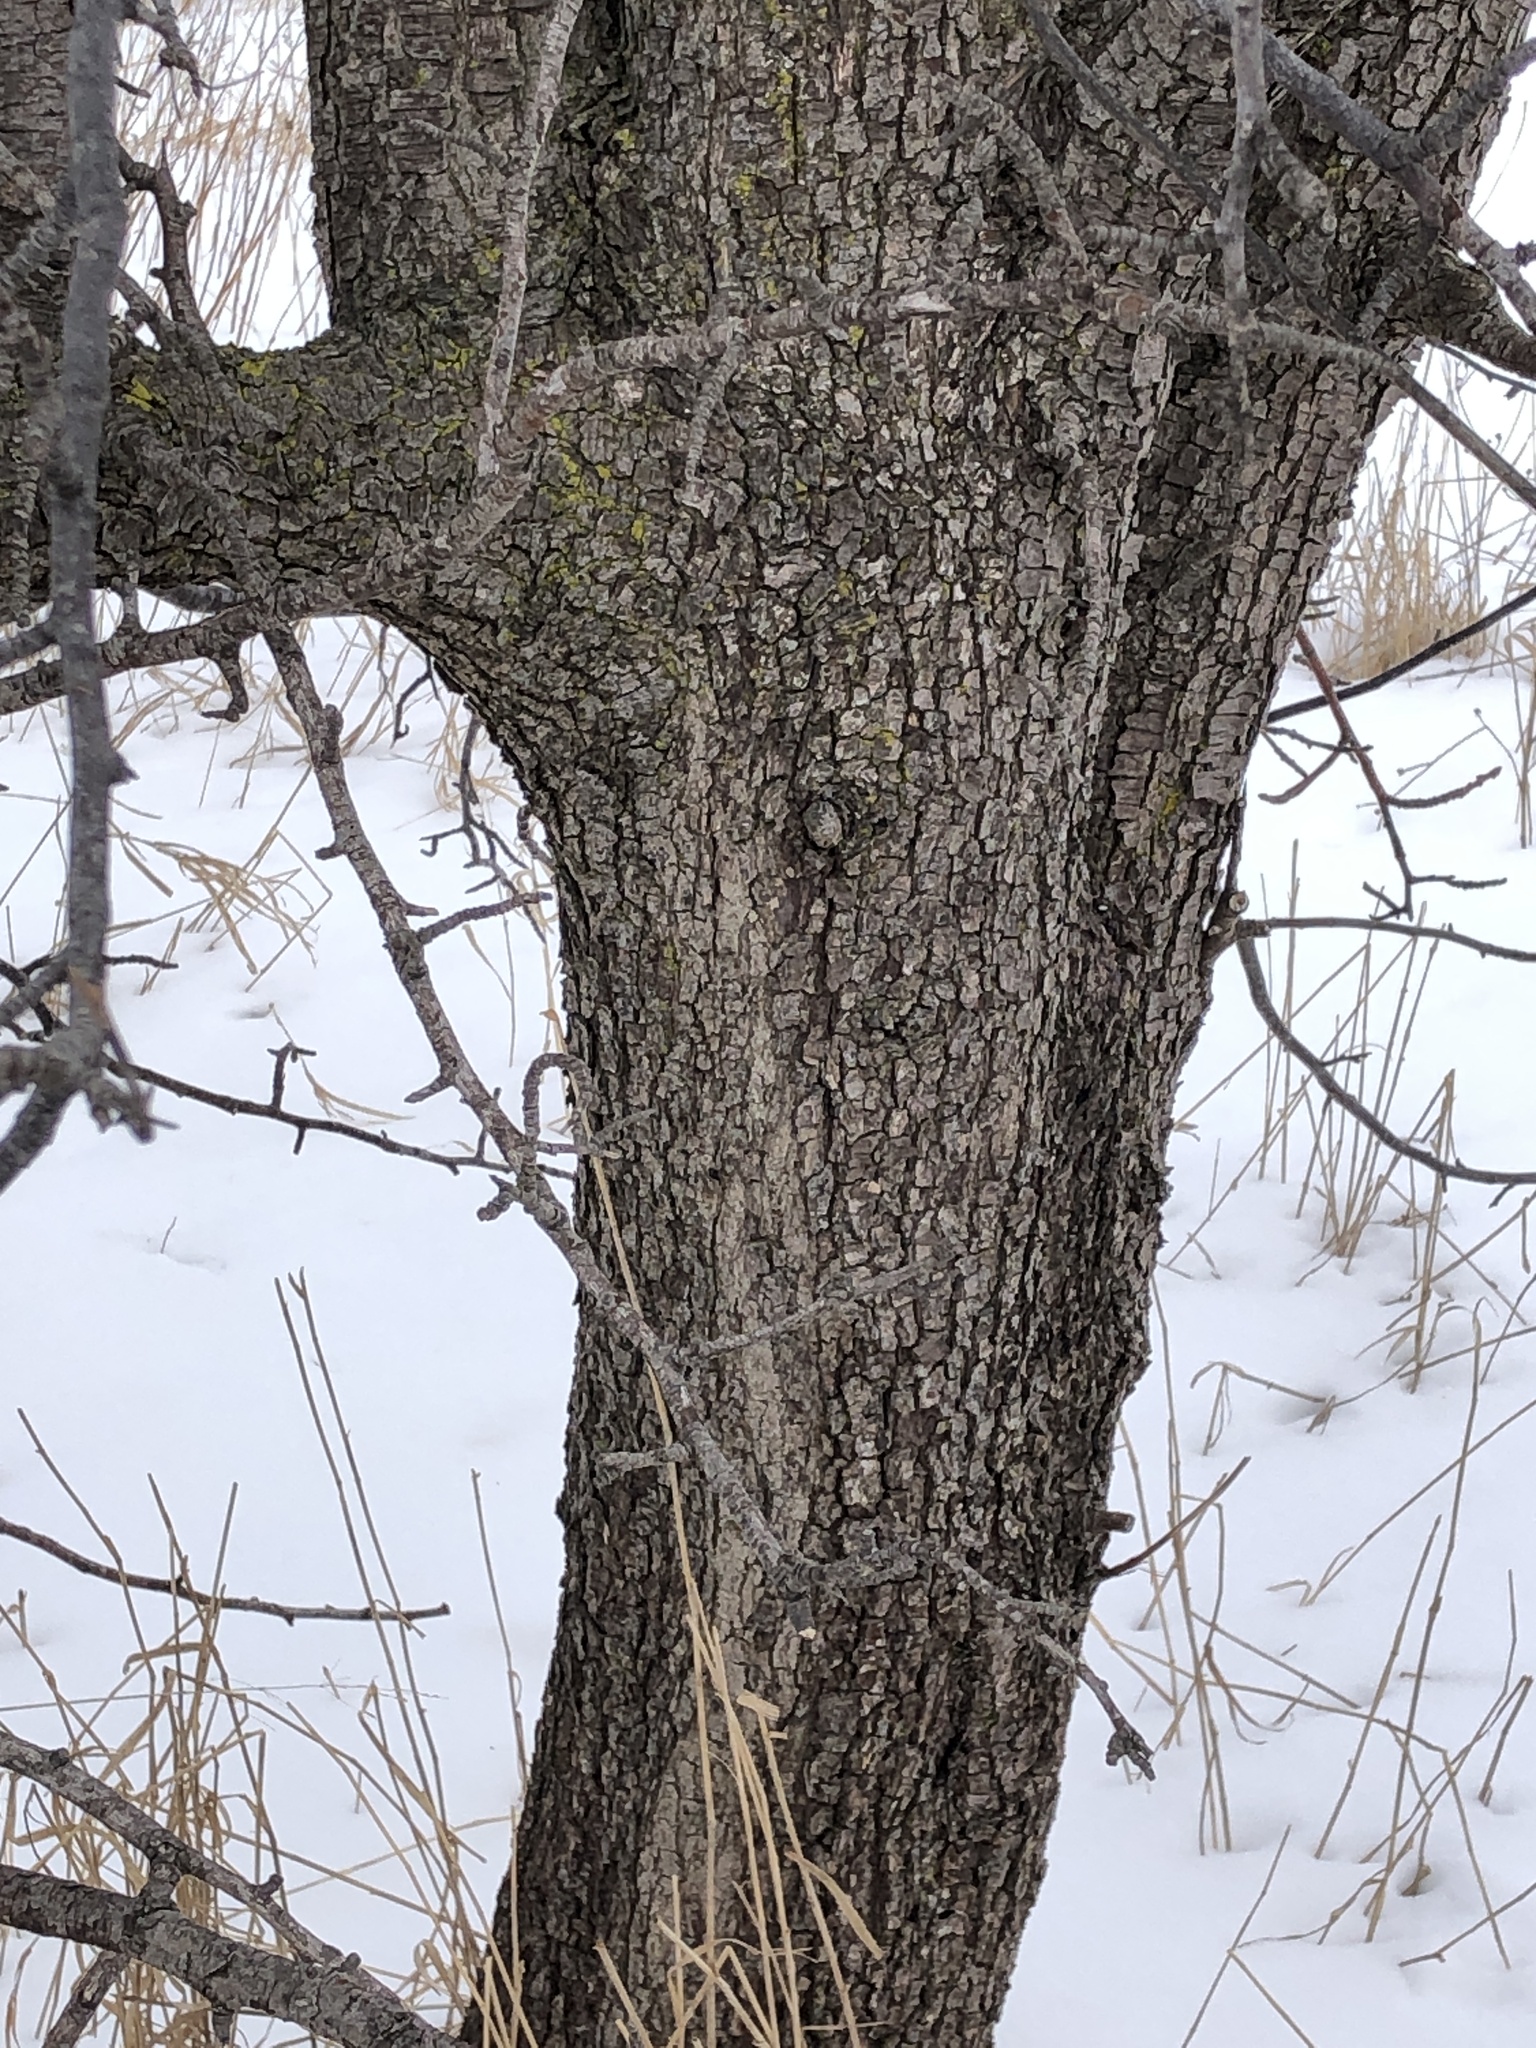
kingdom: Plantae
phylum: Tracheophyta
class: Magnoliopsida
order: Rosales
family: Rosaceae
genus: Pyrus
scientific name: Pyrus calleryana
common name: Callery pear
